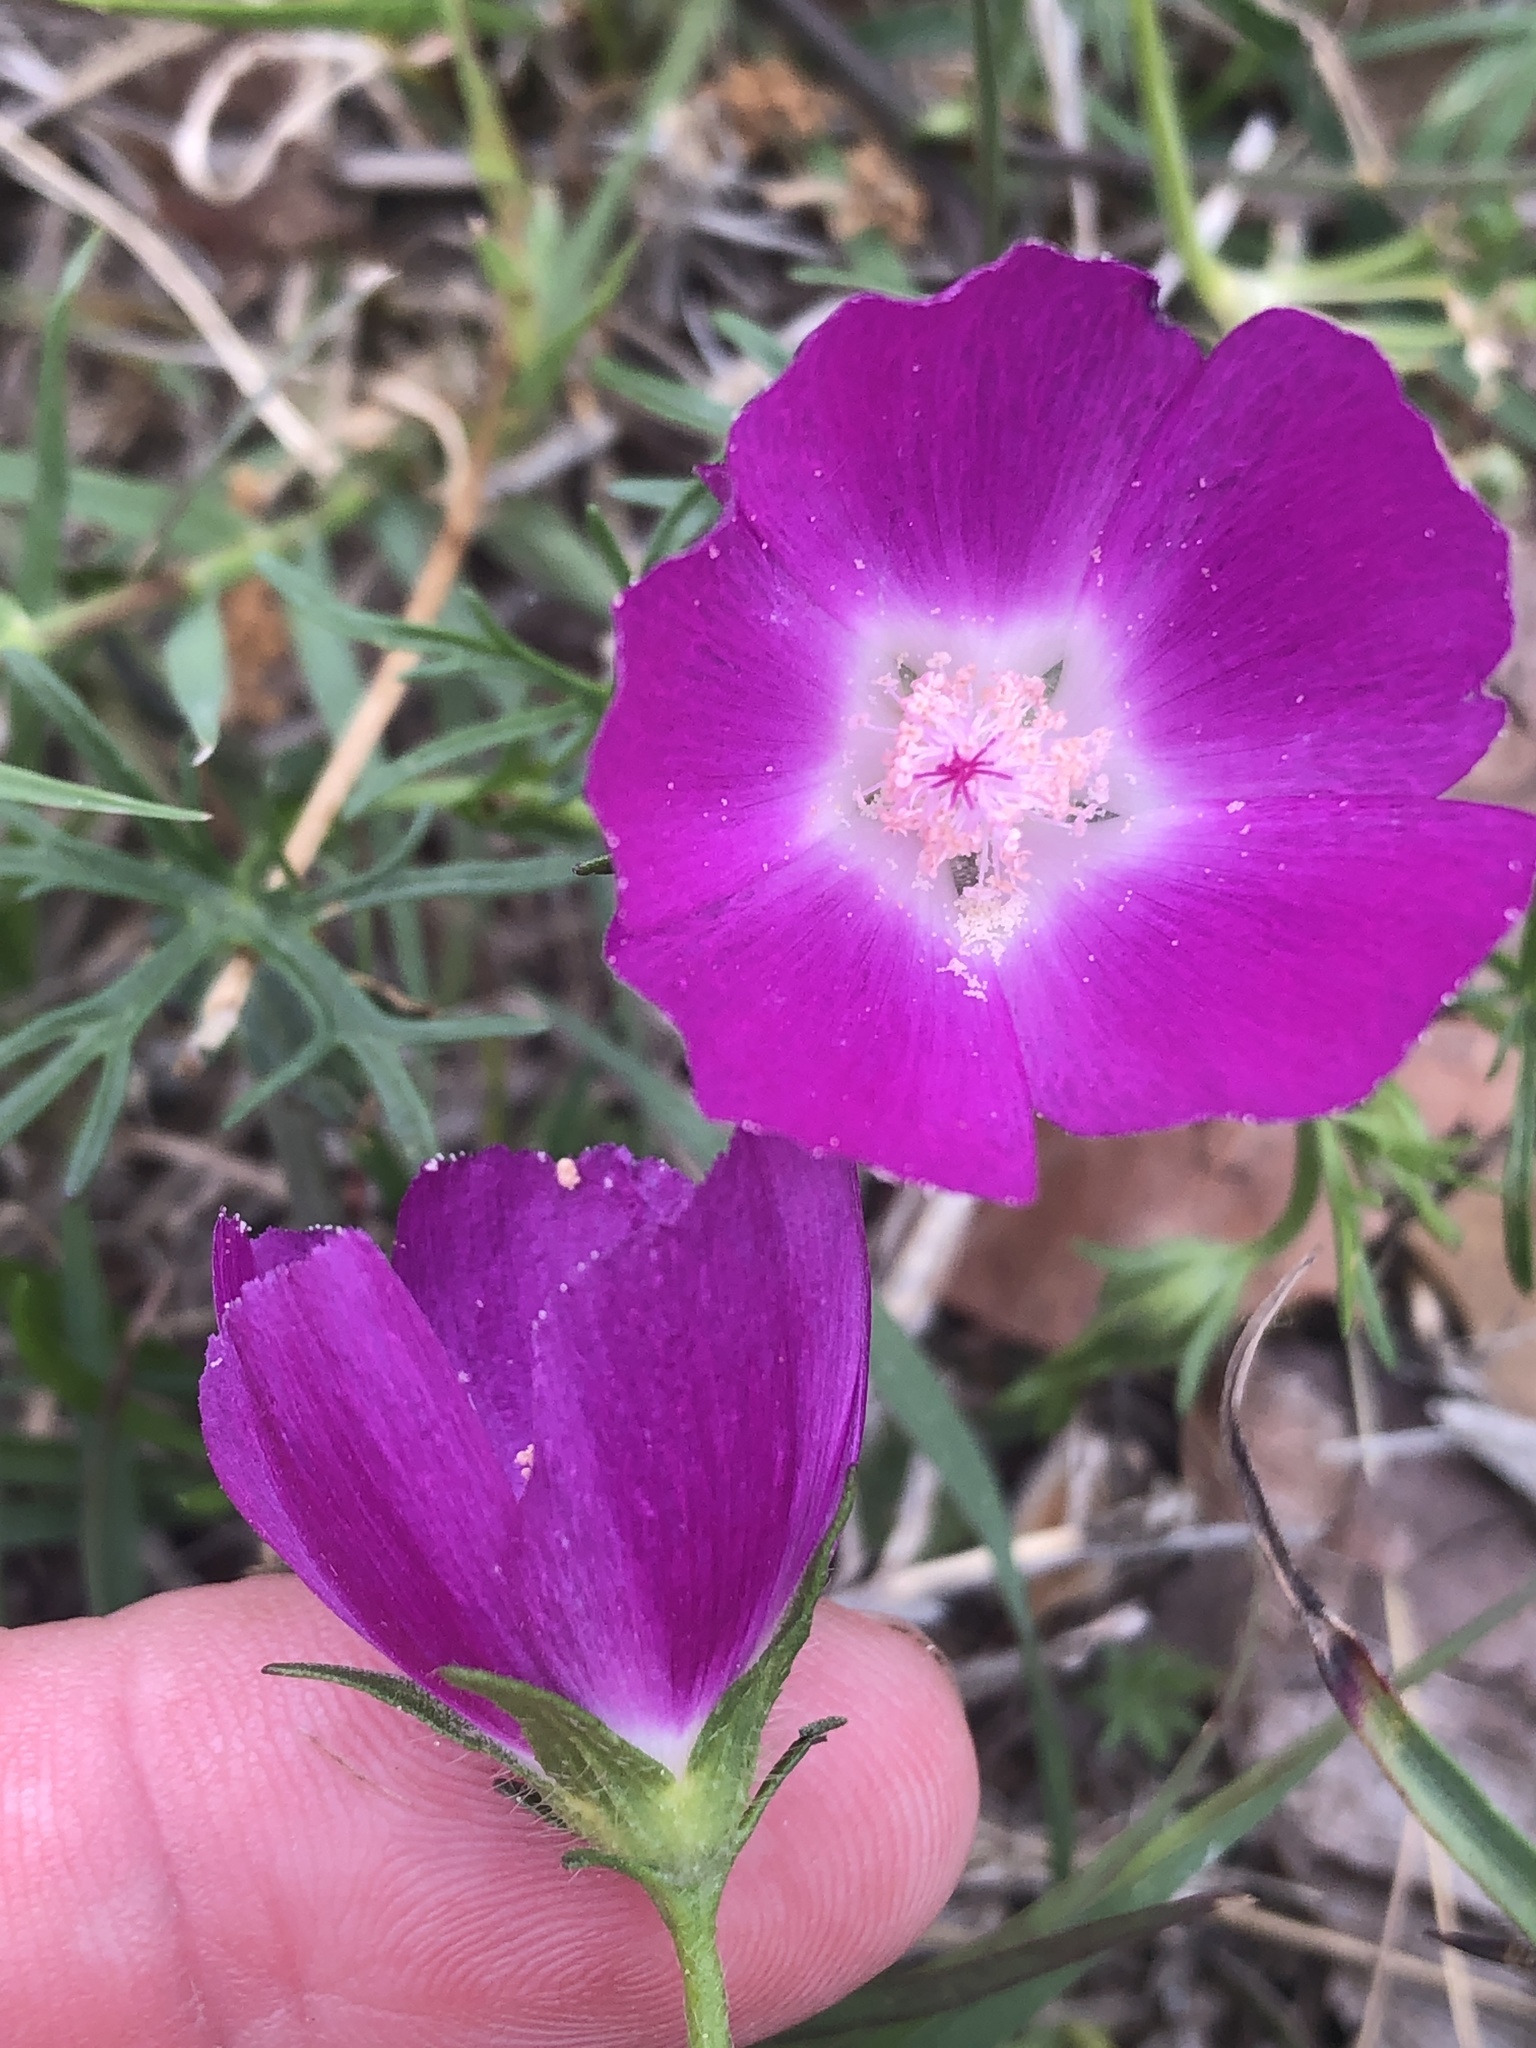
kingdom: Plantae
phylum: Tracheophyta
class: Magnoliopsida
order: Malvales
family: Malvaceae
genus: Callirhoe
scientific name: Callirhoe involucrata
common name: Purple poppy-mallow
